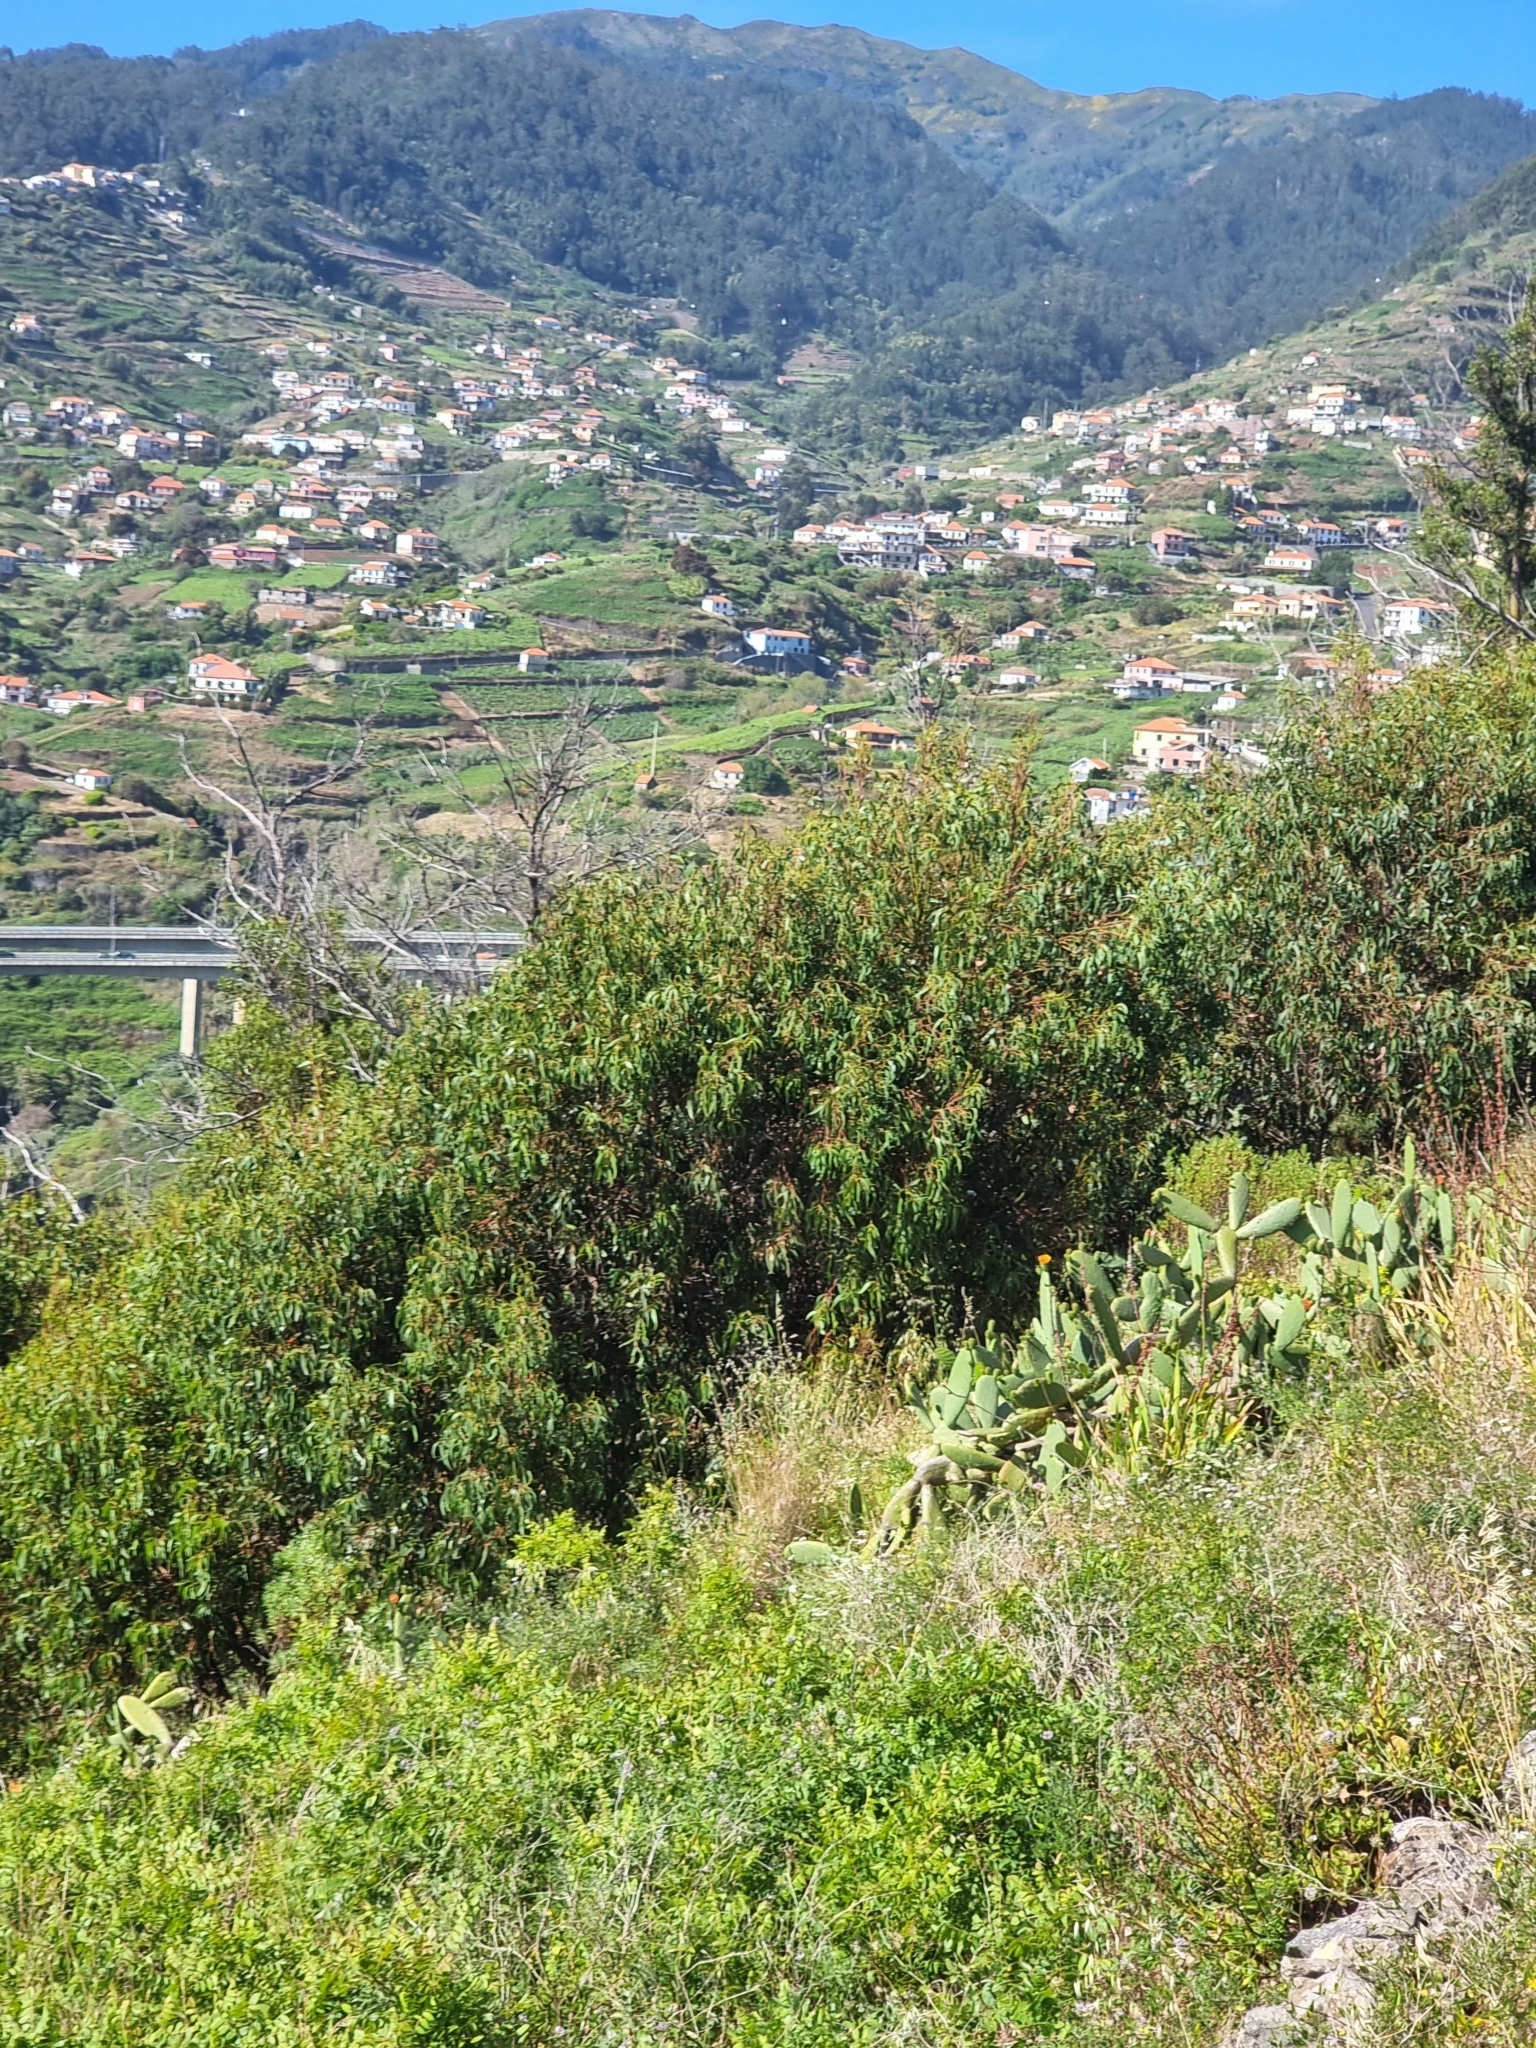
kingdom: Plantae
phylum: Tracheophyta
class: Magnoliopsida
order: Myrtales
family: Myrtaceae
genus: Eucalyptus
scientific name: Eucalyptus globulus
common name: Southern blue-gum
